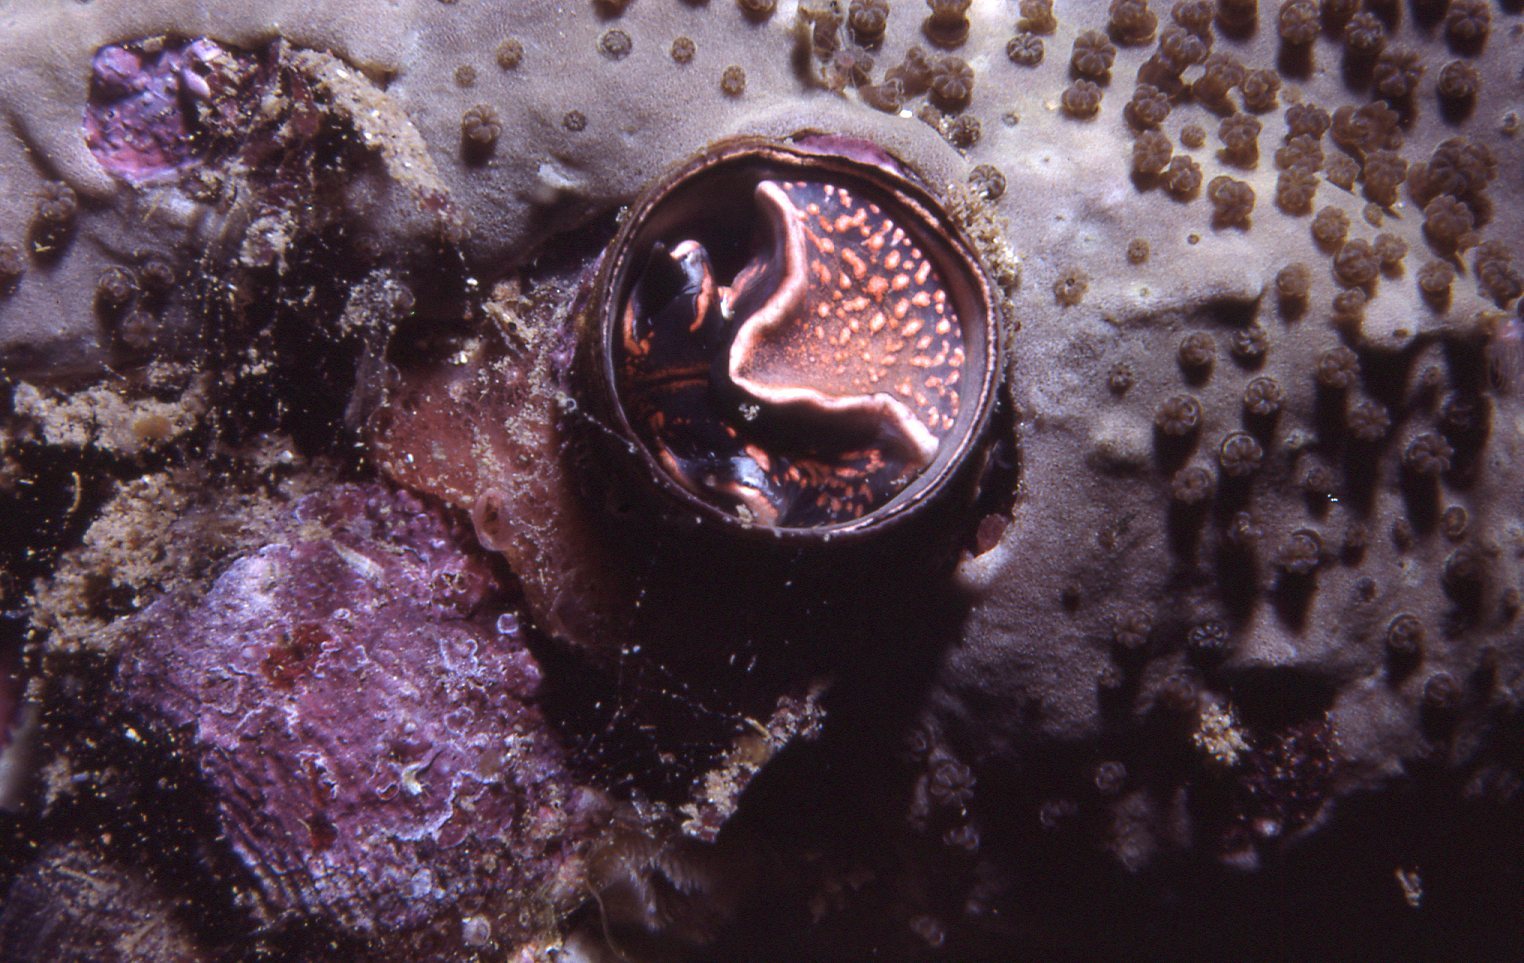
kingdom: Animalia
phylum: Mollusca
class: Gastropoda
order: Littorinimorpha
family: Vermetidae
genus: Thylacodes
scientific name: Thylacodes sipho
